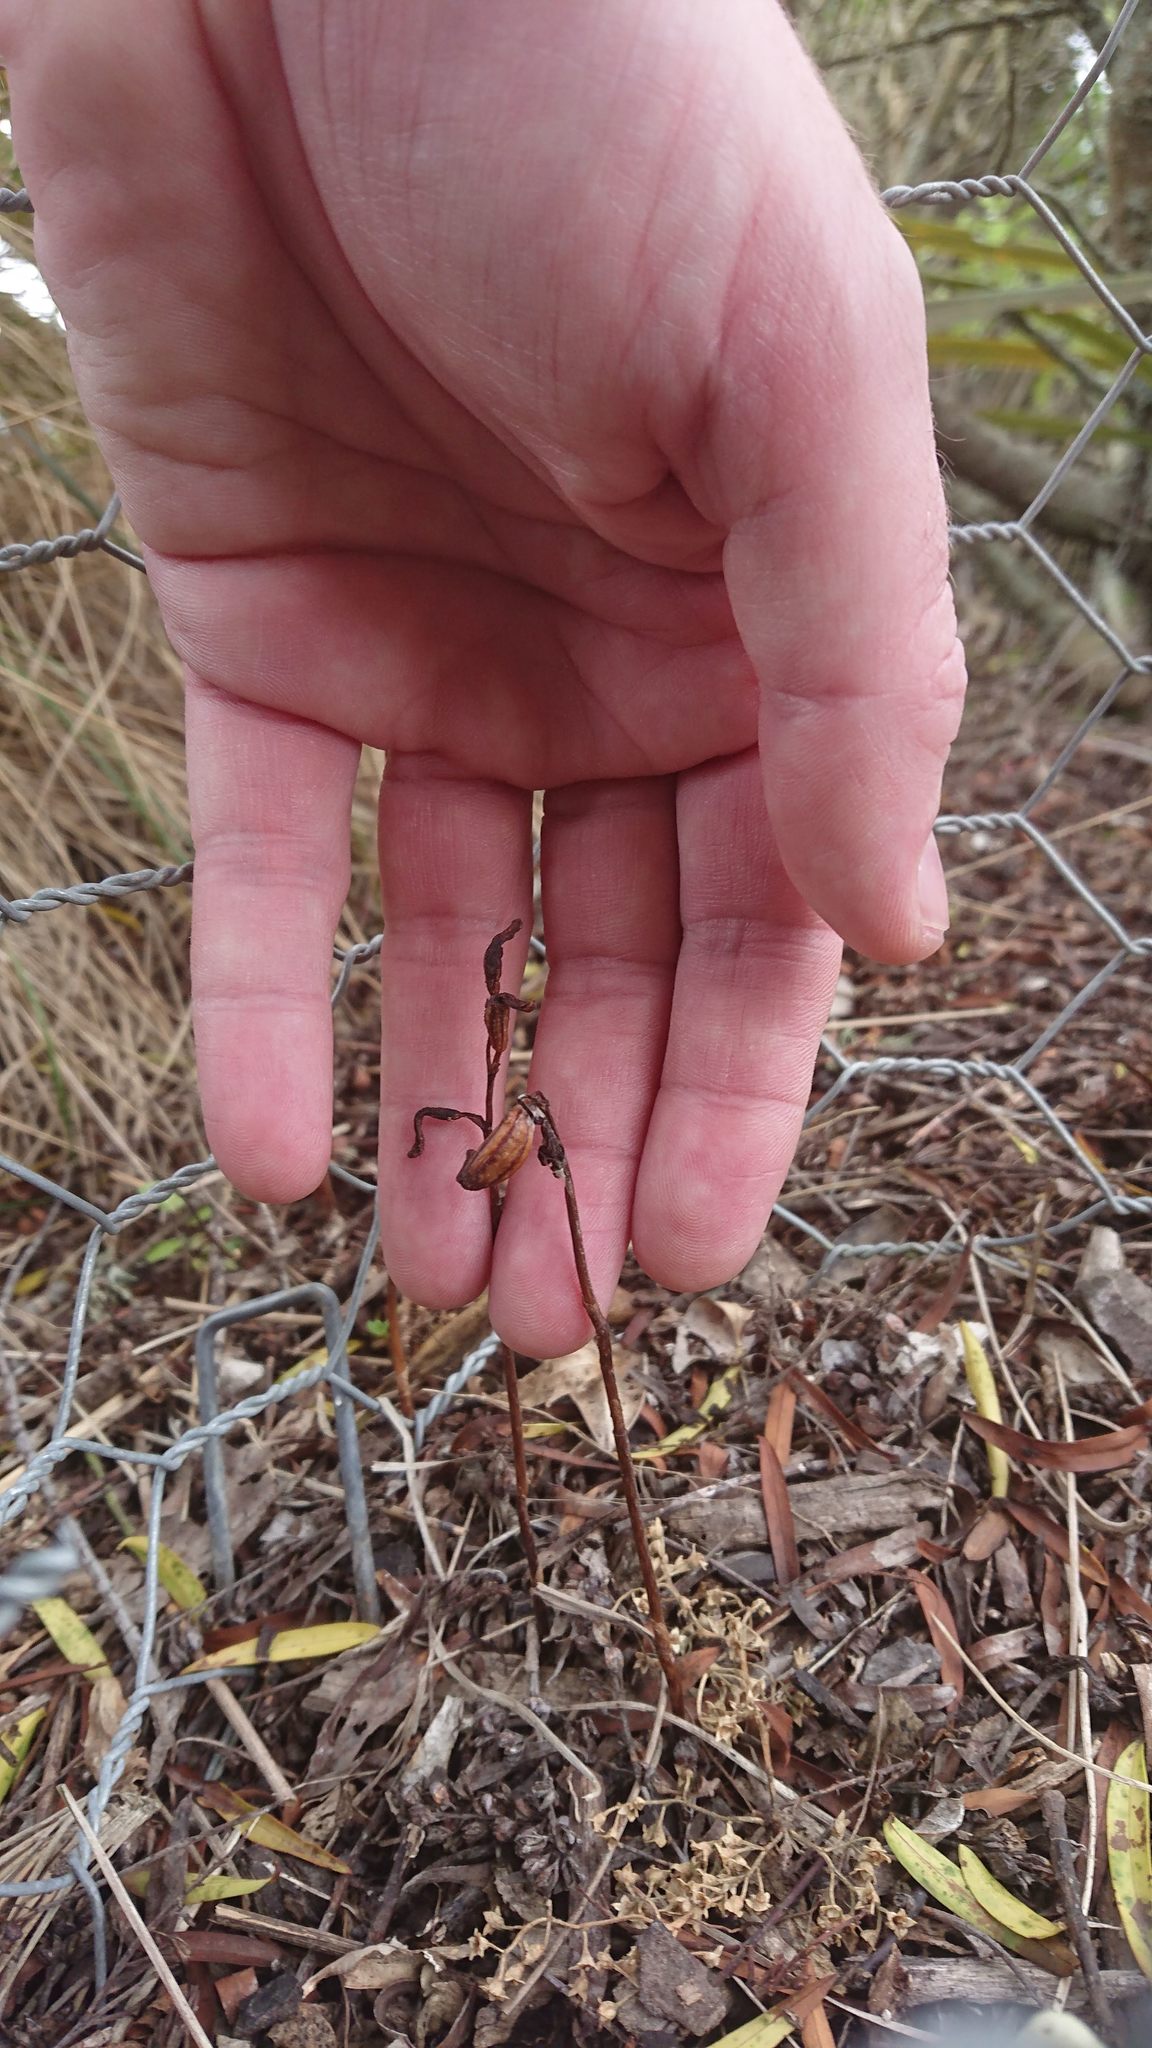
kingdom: Plantae
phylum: Tracheophyta
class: Liliopsida
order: Asparagales
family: Orchidaceae
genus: Gastrodia
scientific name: Gastrodia minor
